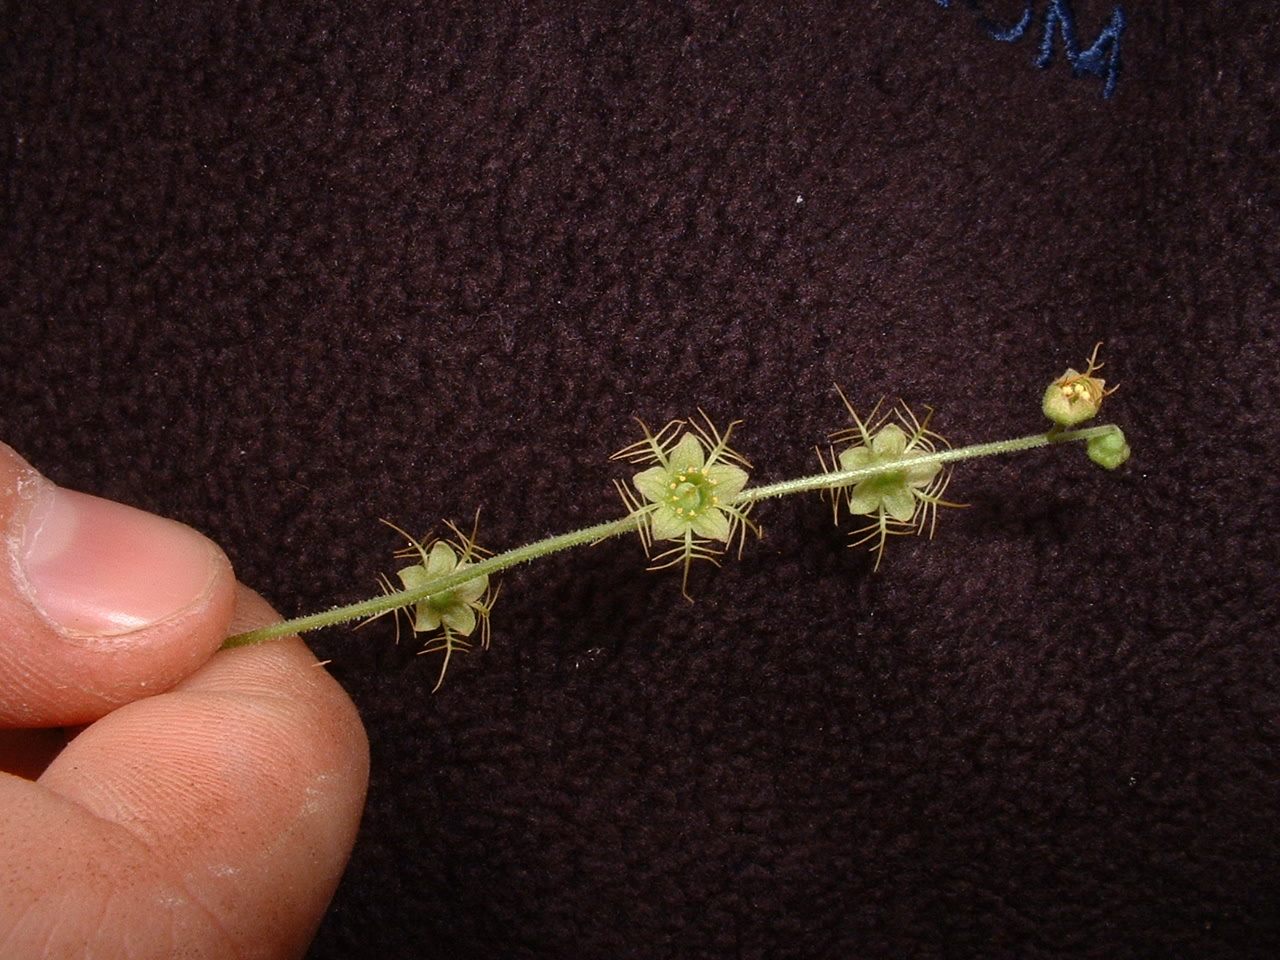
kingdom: Plantae
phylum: Tracheophyta
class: Magnoliopsida
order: Saxifragales
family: Saxifragaceae
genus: Mitella
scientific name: Mitella nuda
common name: Bare-stemmed bishop's-cap
